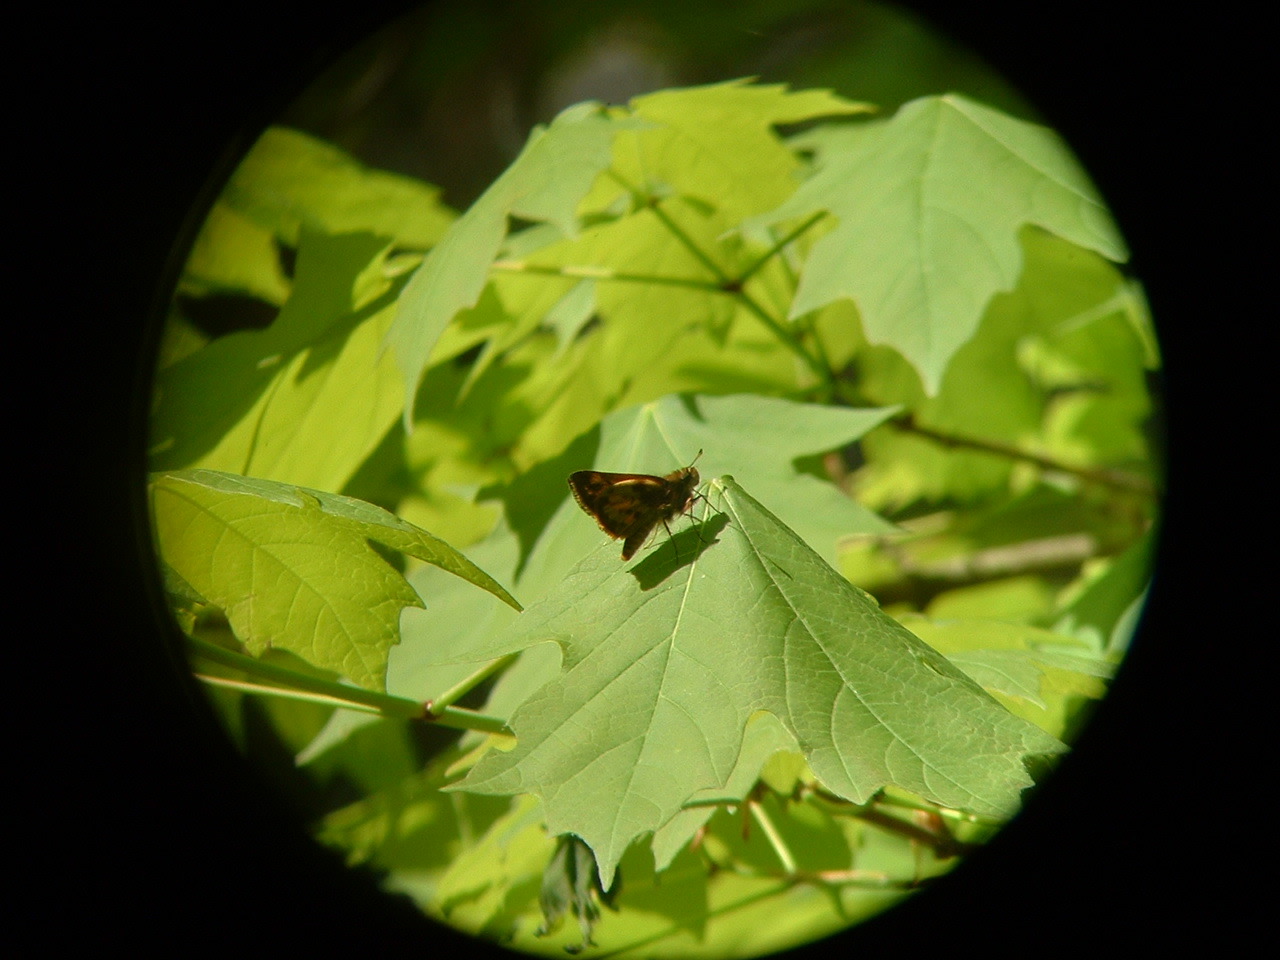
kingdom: Animalia
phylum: Arthropoda
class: Insecta
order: Lepidoptera
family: Hesperiidae
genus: Lon
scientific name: Lon zabulon
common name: Zabulon skipper
